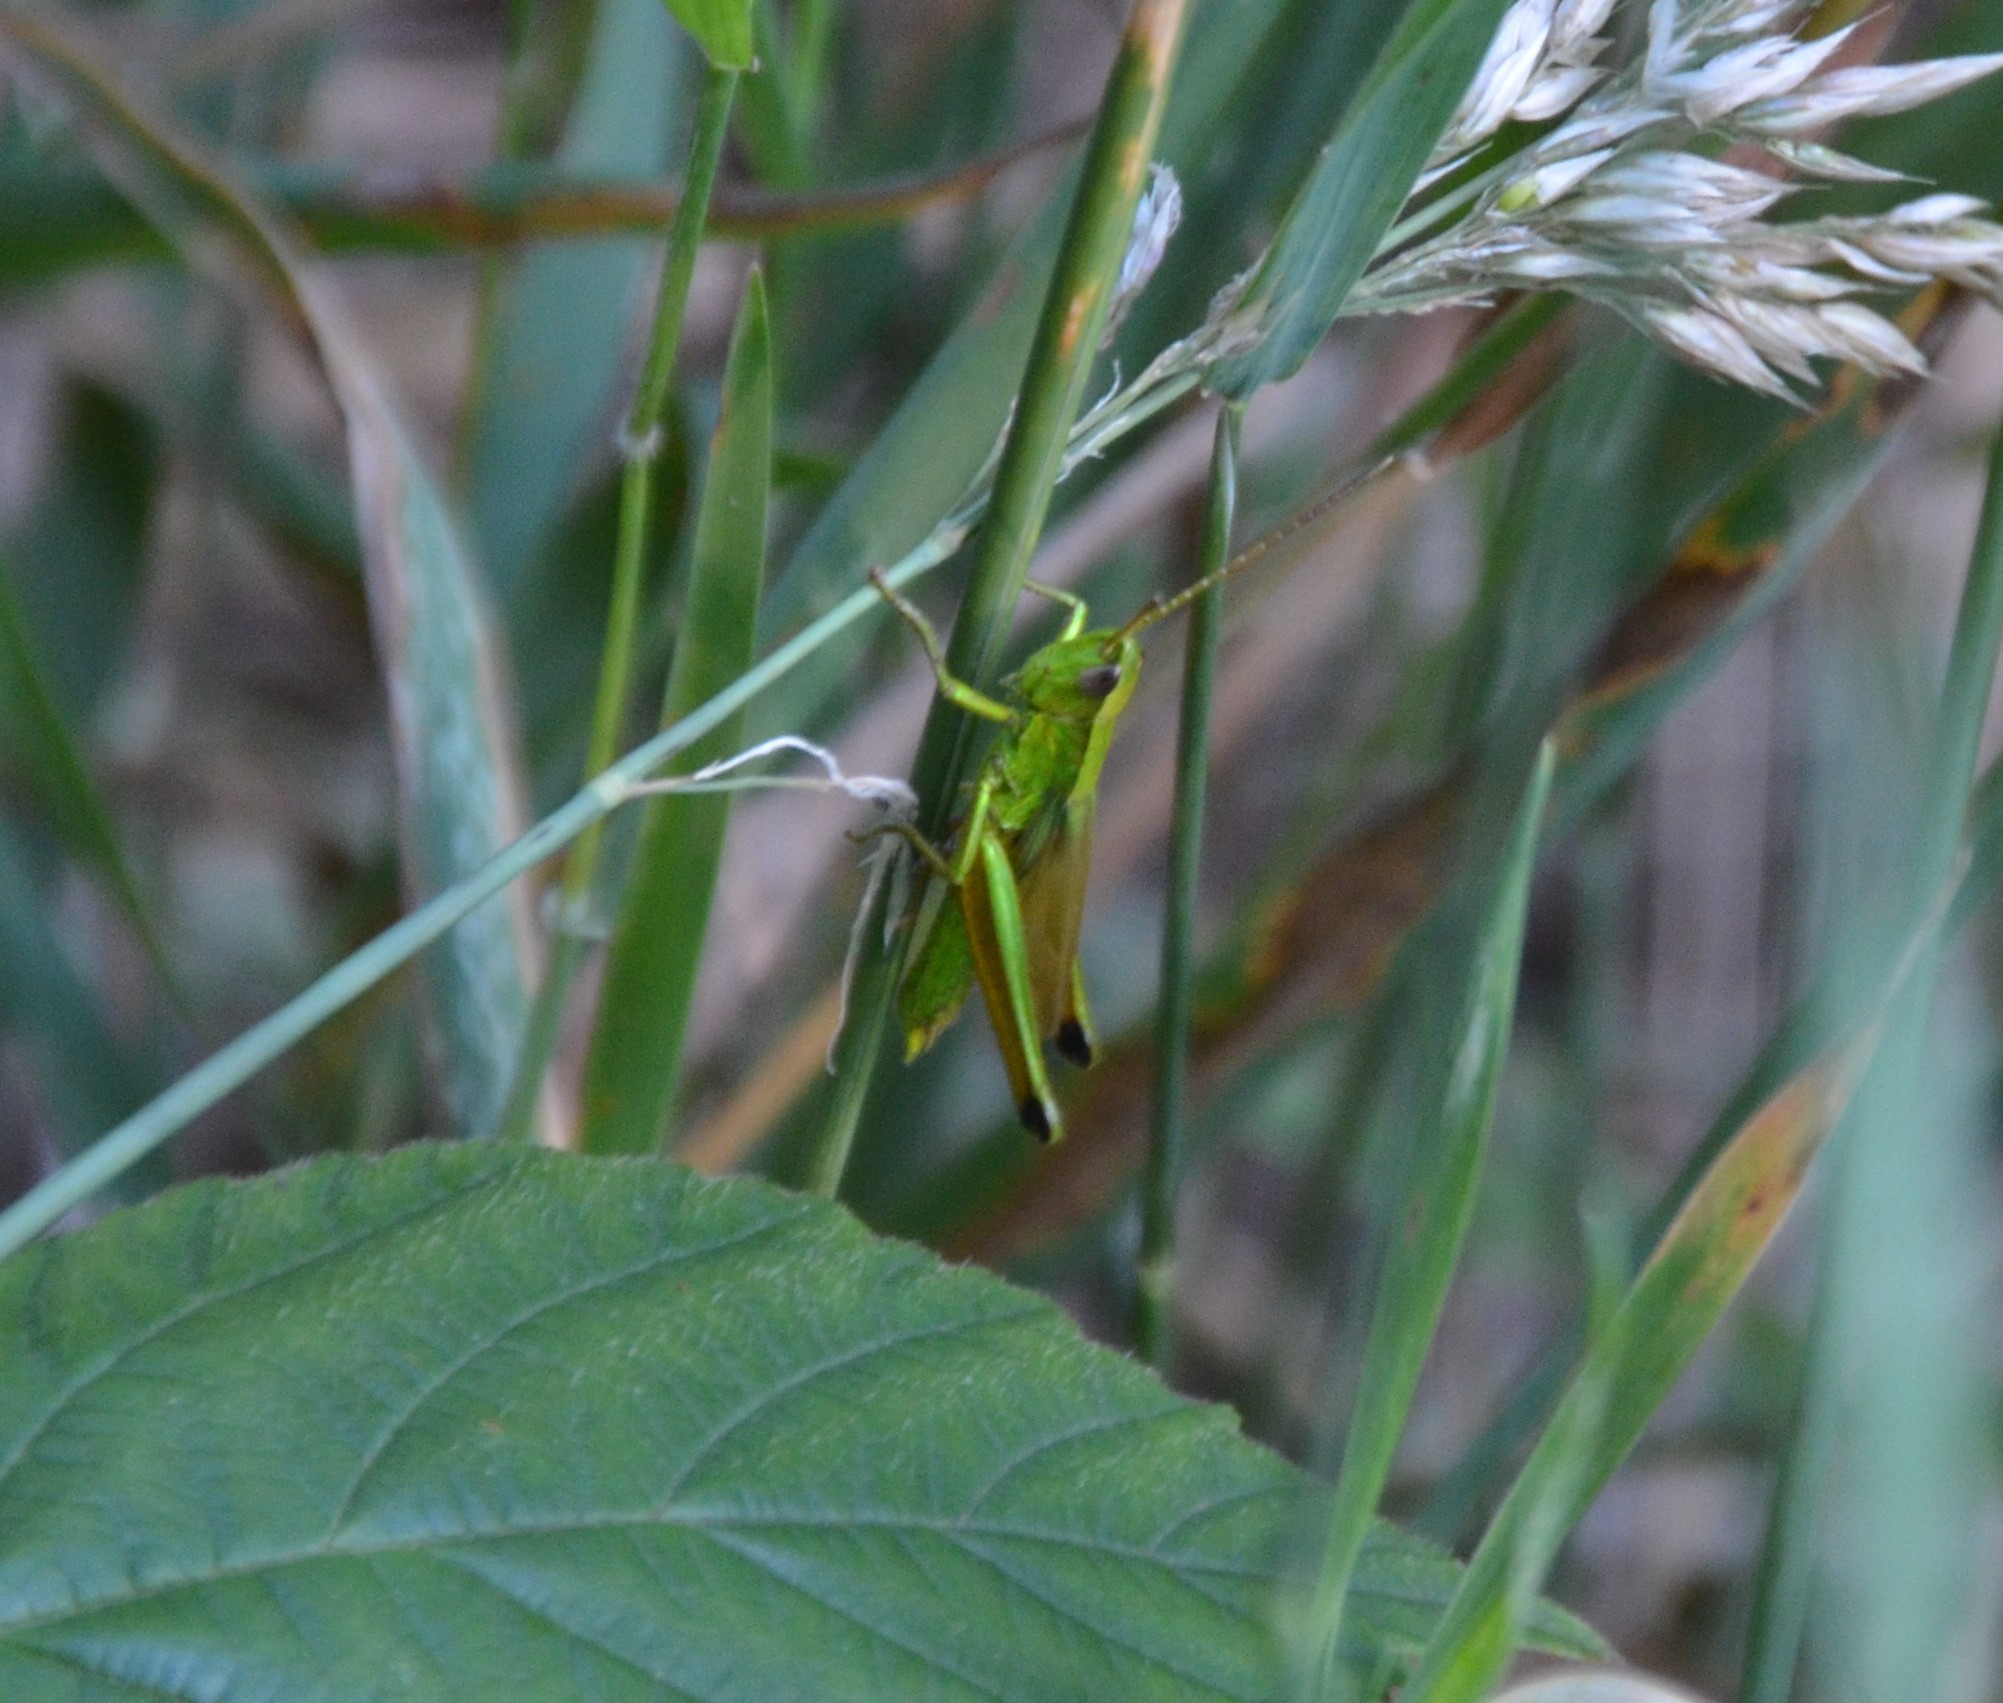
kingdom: Animalia
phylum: Arthropoda
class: Insecta
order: Orthoptera
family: Acrididae
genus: Chrysochraon
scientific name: Chrysochraon dispar
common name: Large gold grasshopper
